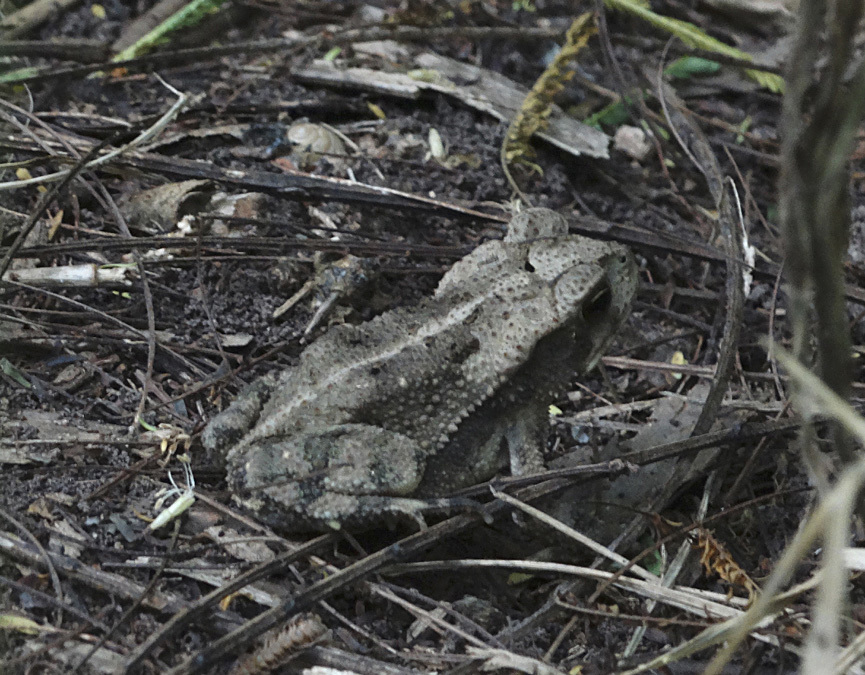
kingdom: Animalia
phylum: Chordata
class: Amphibia
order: Anura
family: Bufonidae
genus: Incilius
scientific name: Incilius nebulifer
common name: Gulf coast toad
